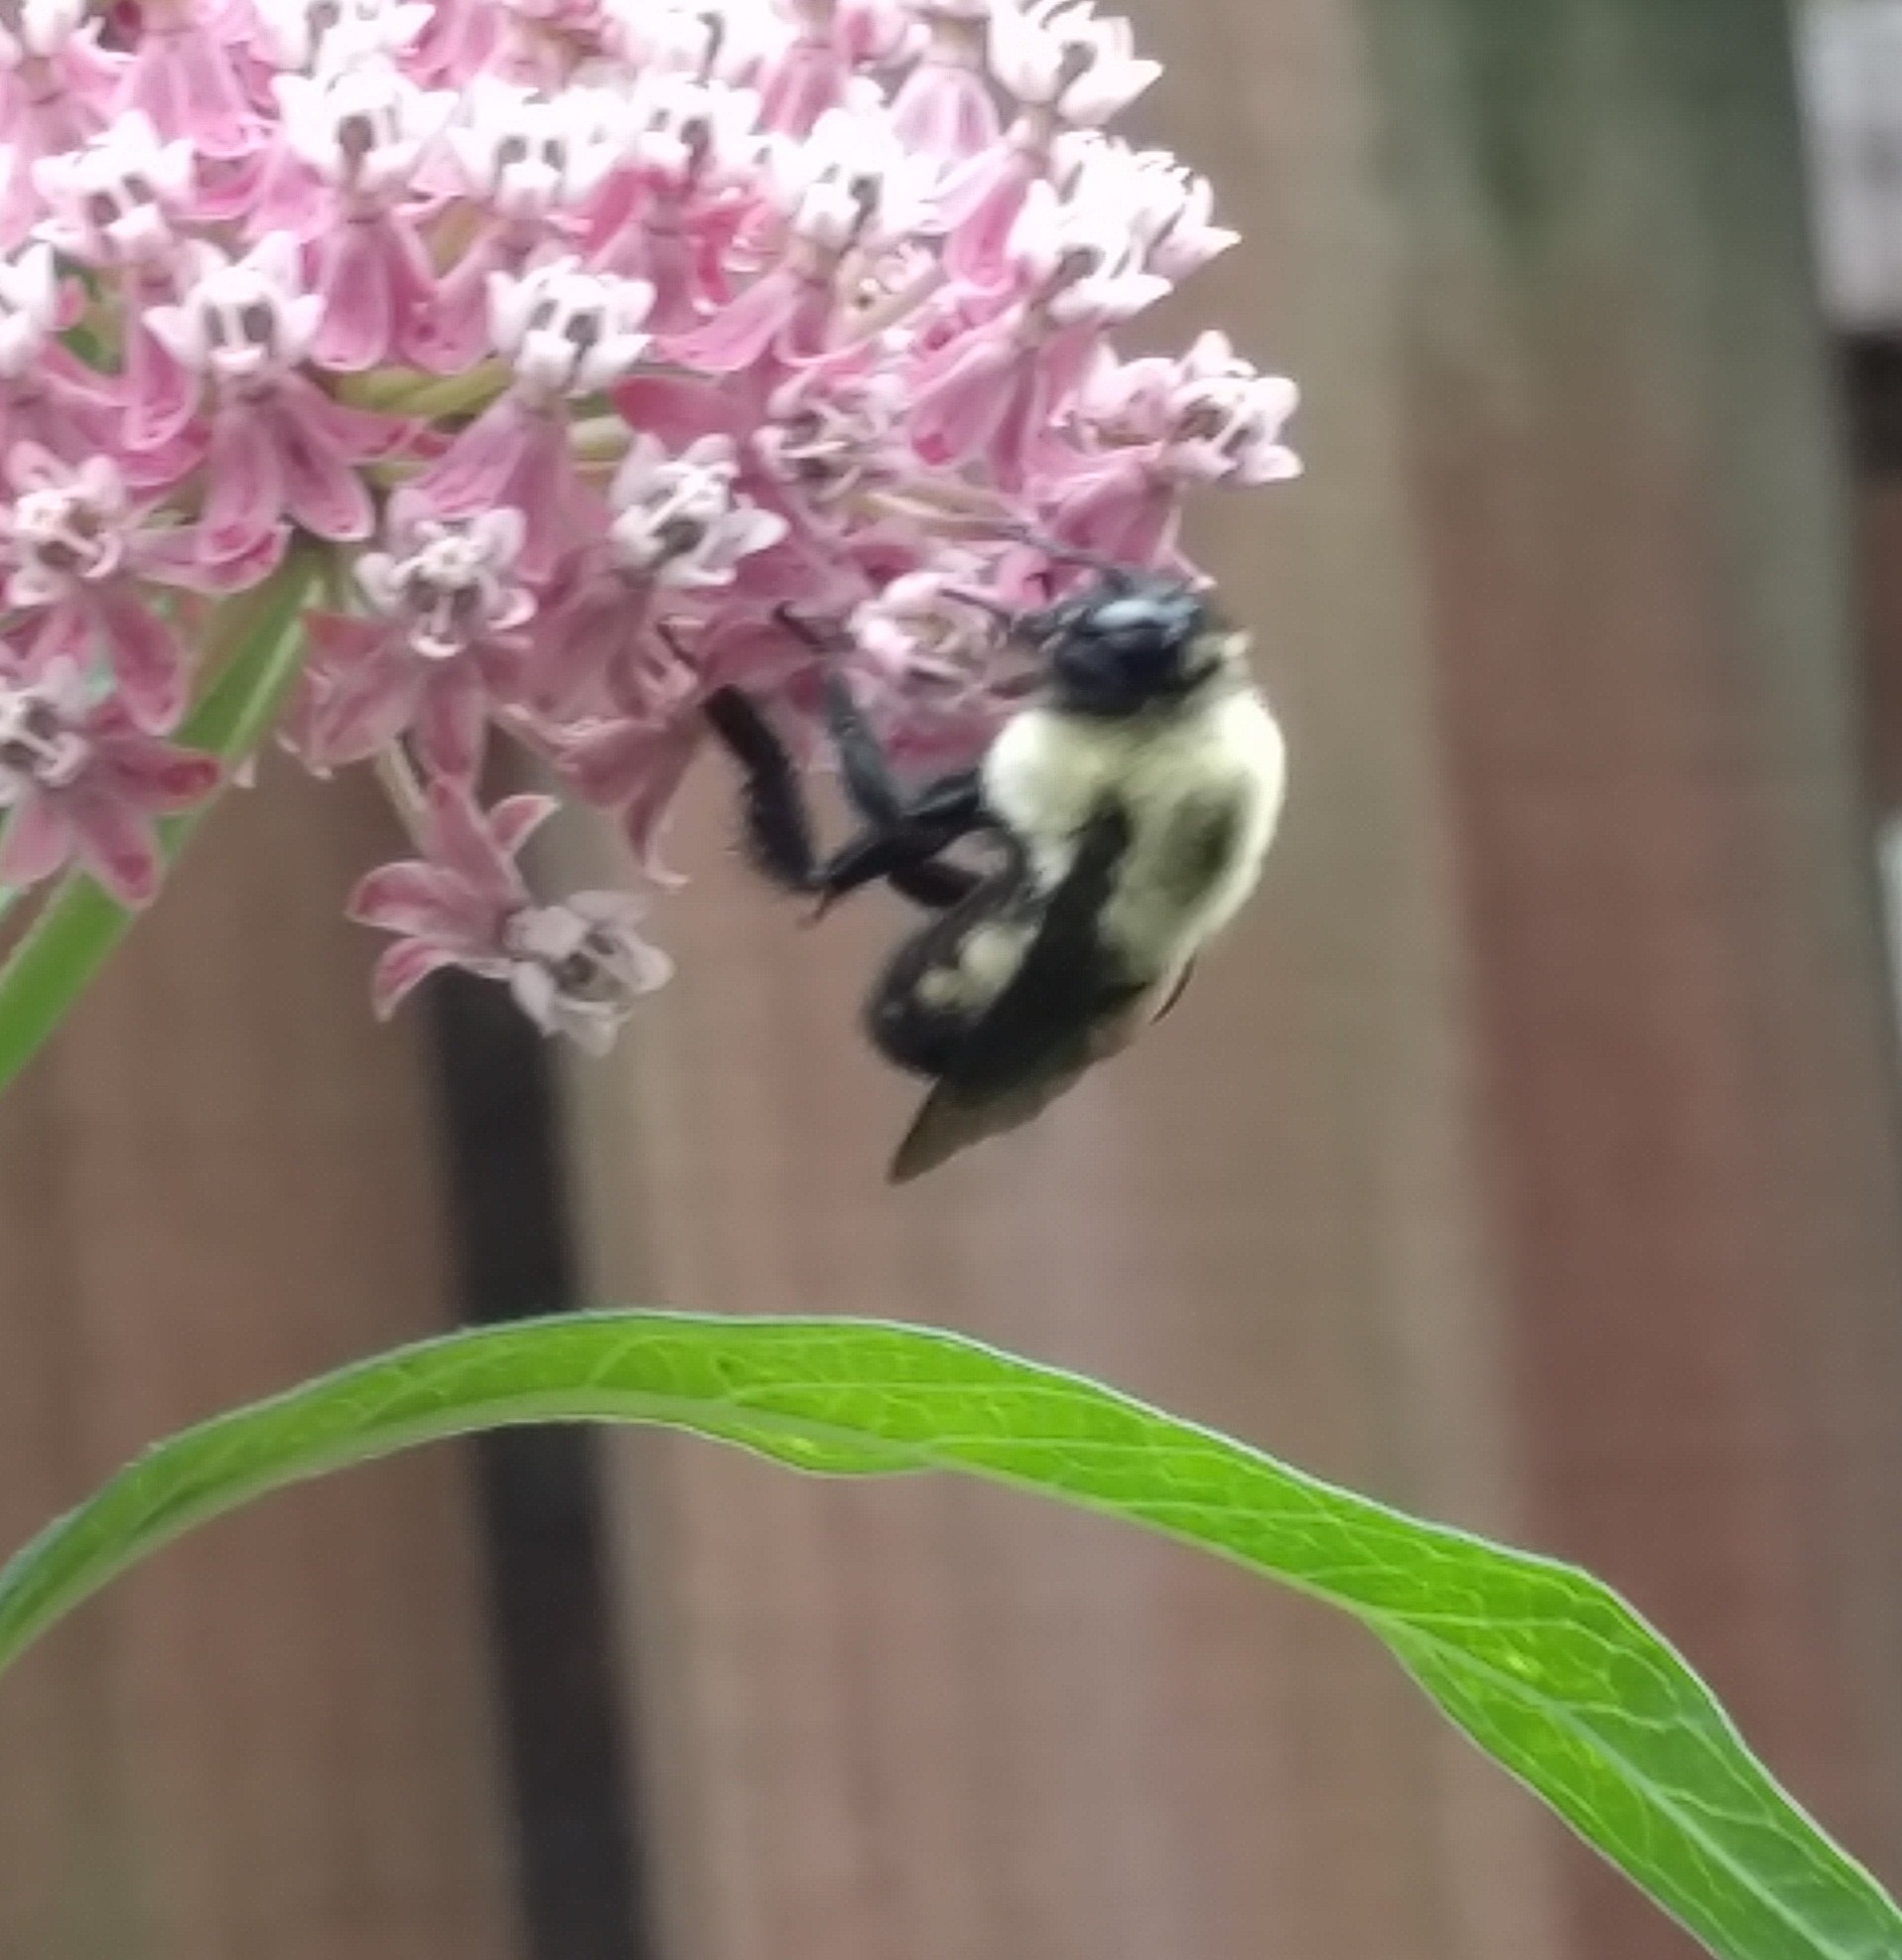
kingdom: Animalia
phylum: Arthropoda
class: Insecta
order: Hymenoptera
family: Apidae
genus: Bombus
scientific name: Bombus griseocollis
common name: Brown-belted bumble bee
